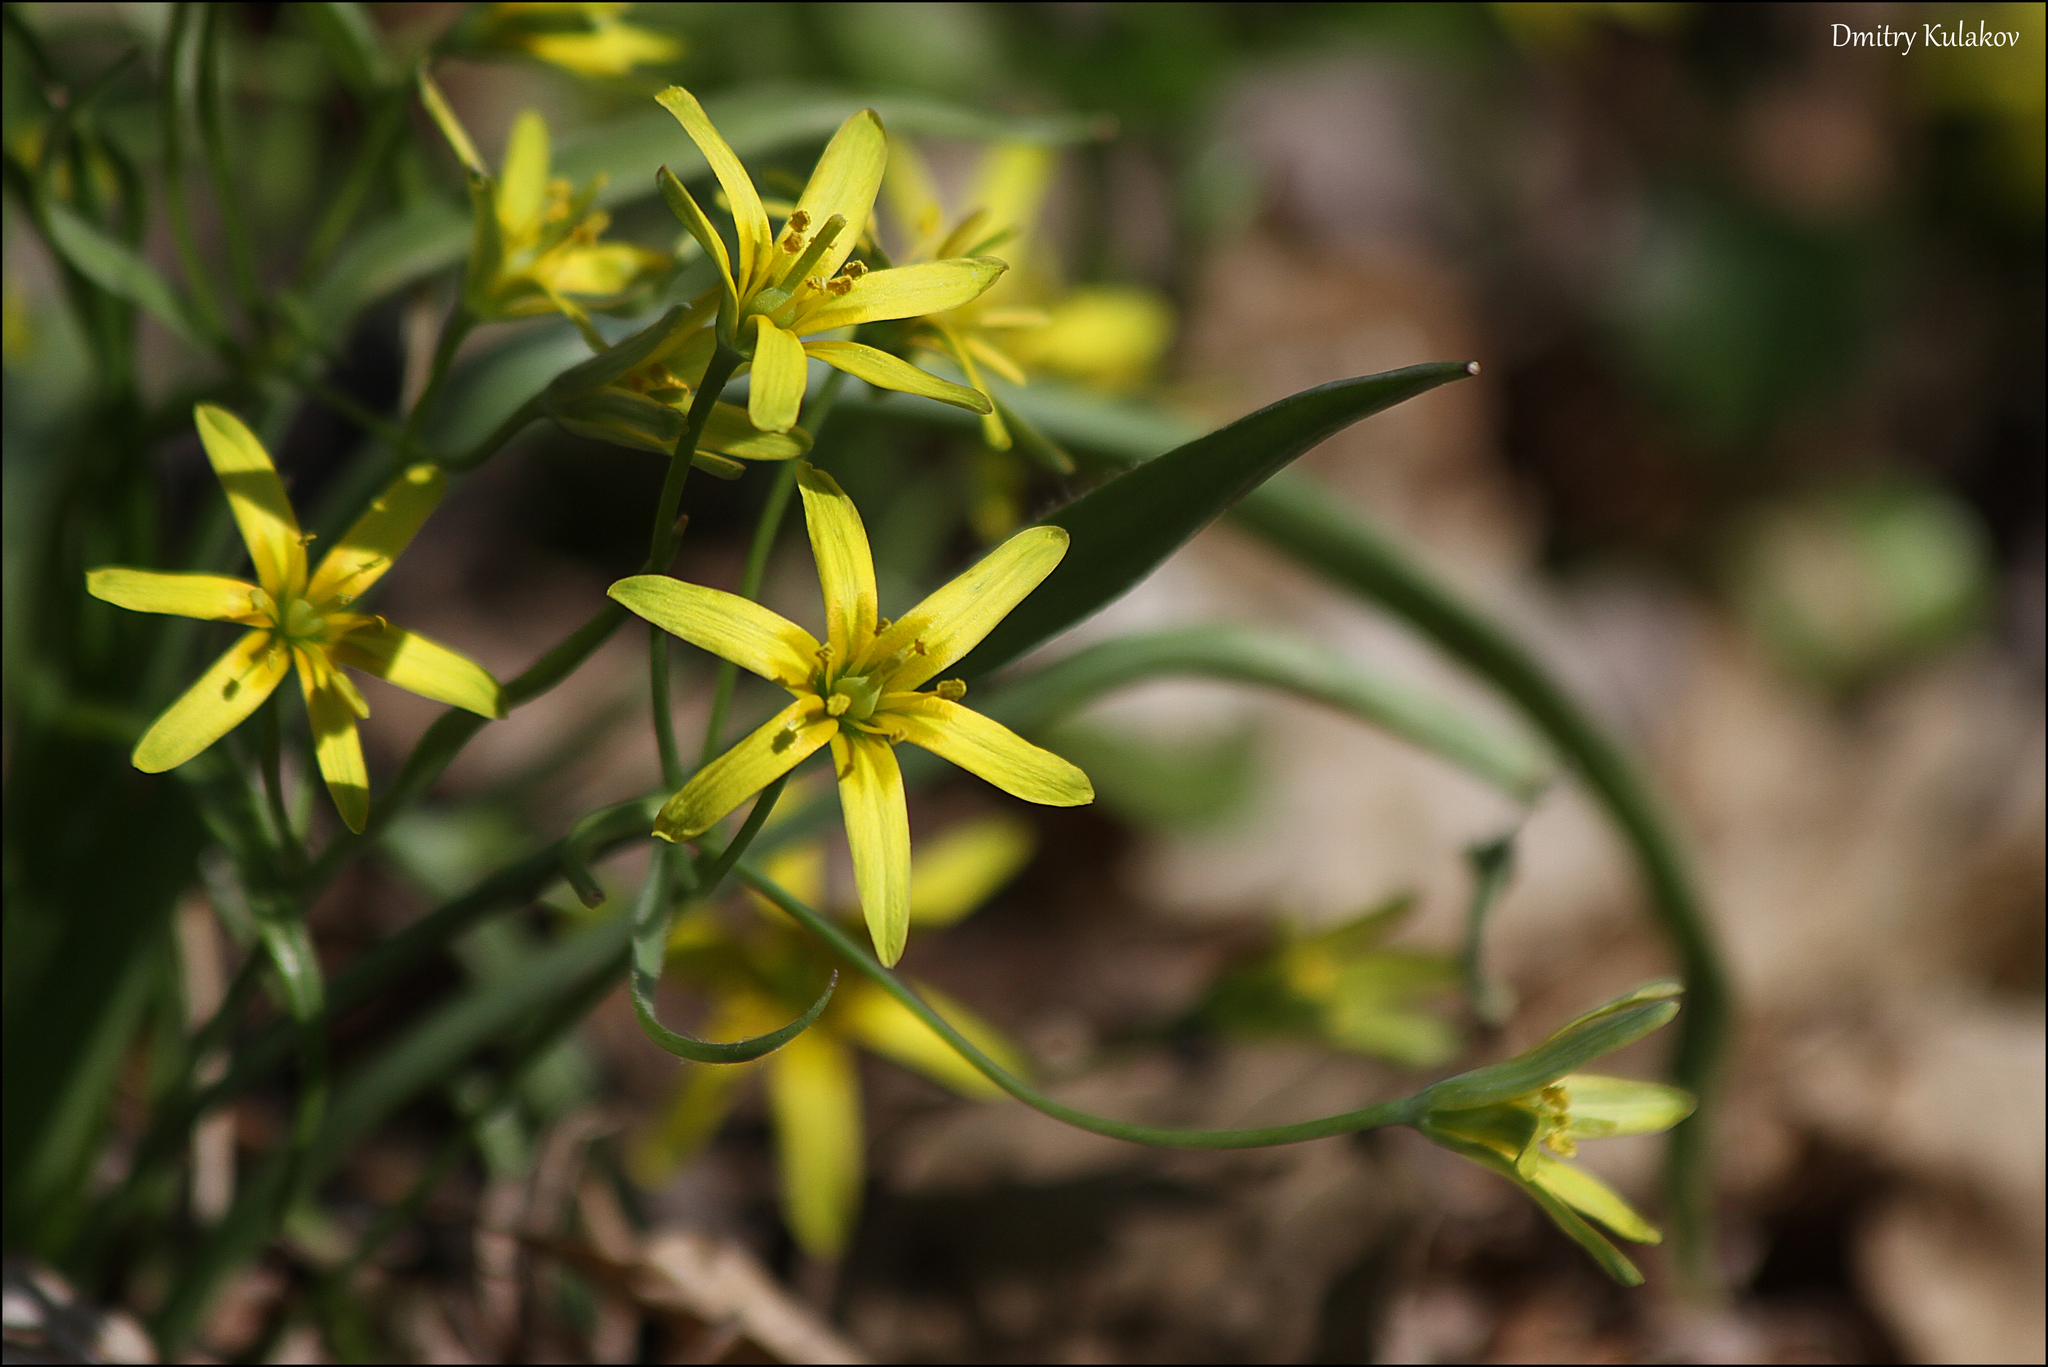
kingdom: Plantae
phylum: Tracheophyta
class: Liliopsida
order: Liliales
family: Liliaceae
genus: Gagea
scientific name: Gagea lutea
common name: Yellow star-of-bethlehem
